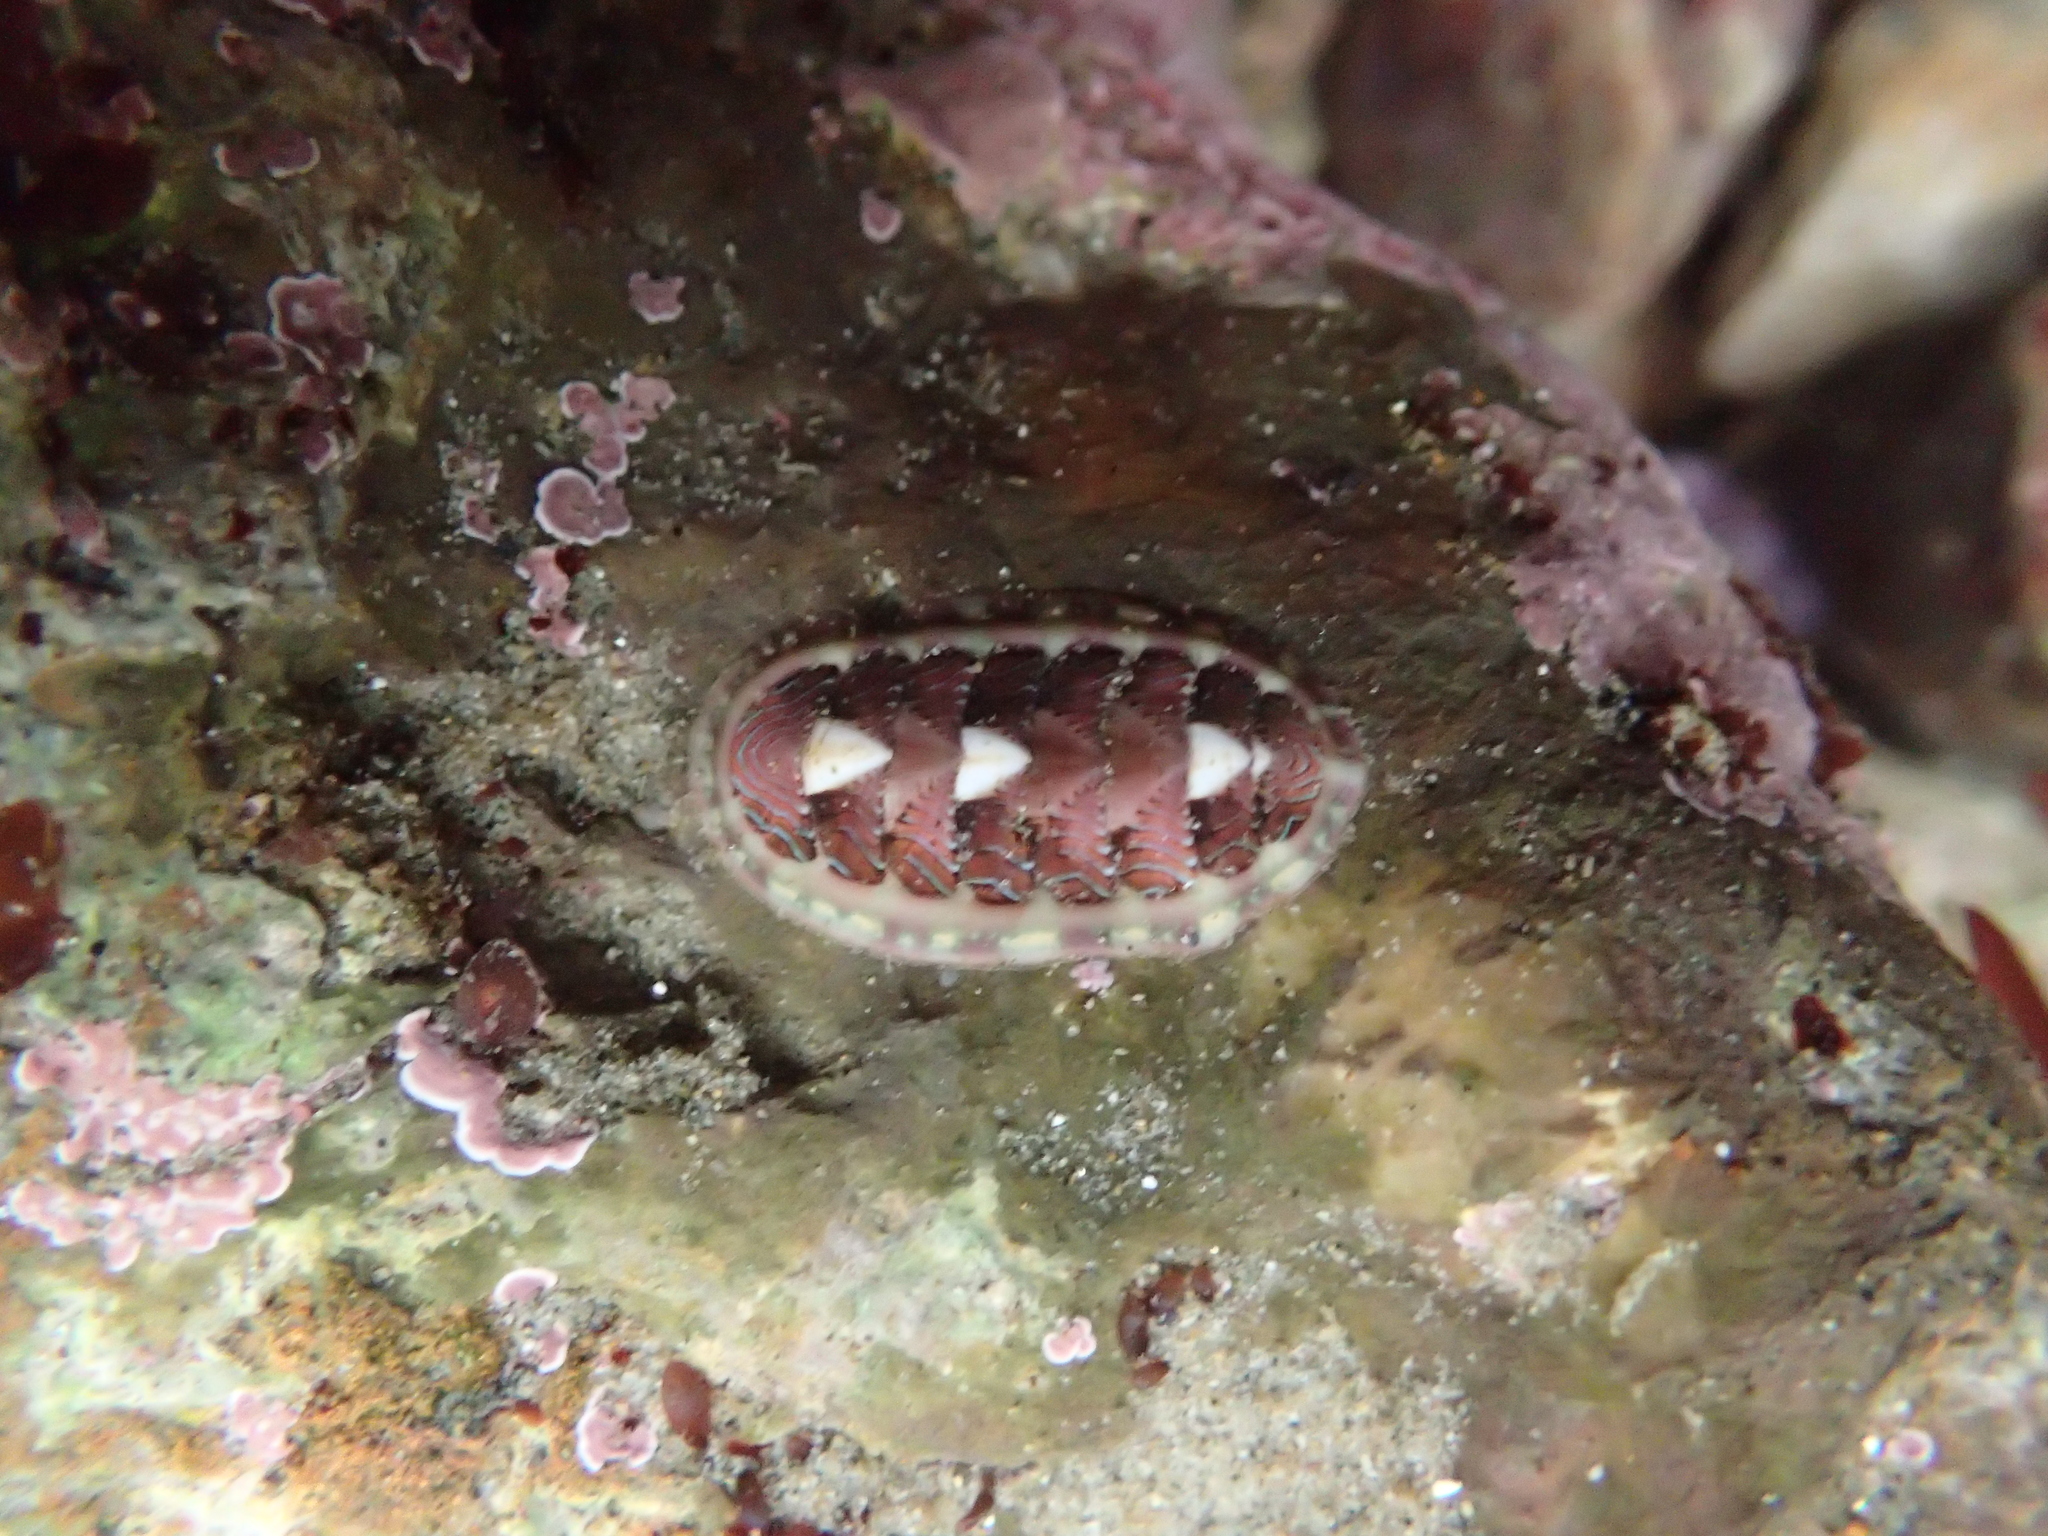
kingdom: Animalia
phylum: Mollusca
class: Polyplacophora
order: Chitonida
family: Tonicellidae
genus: Tonicella
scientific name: Tonicella lineata
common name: Lined chiton
